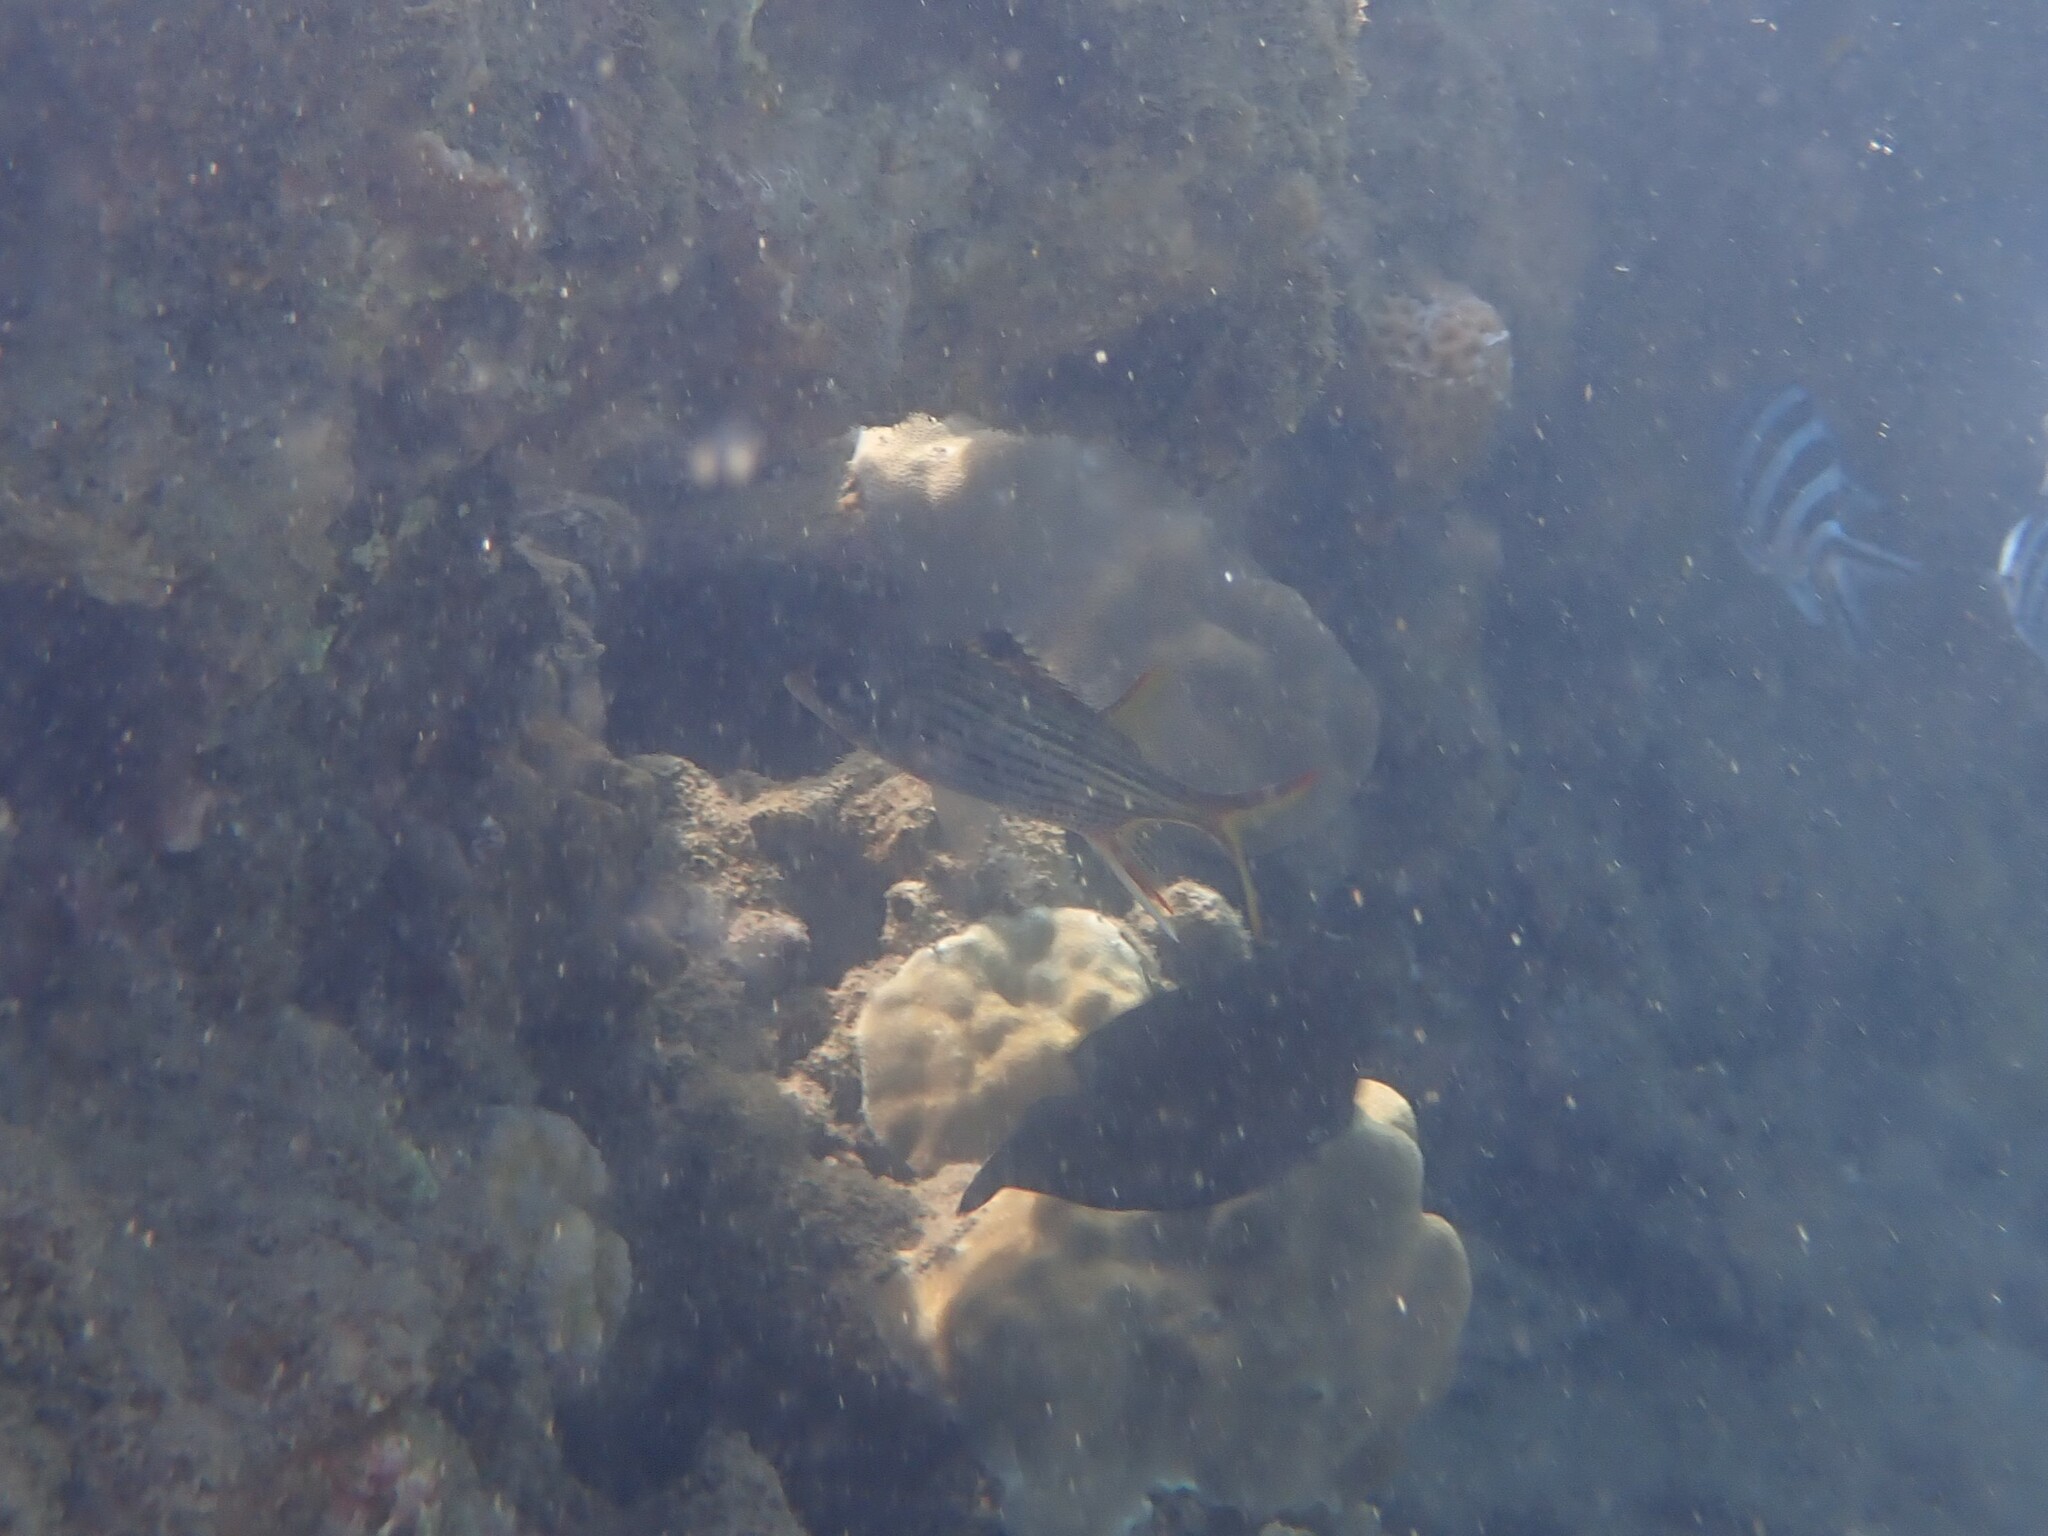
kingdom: Animalia
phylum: Chordata
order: Beryciformes
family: Holocentridae
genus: Neoniphon
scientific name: Neoniphon sammara
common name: Sammara squirrelfish
